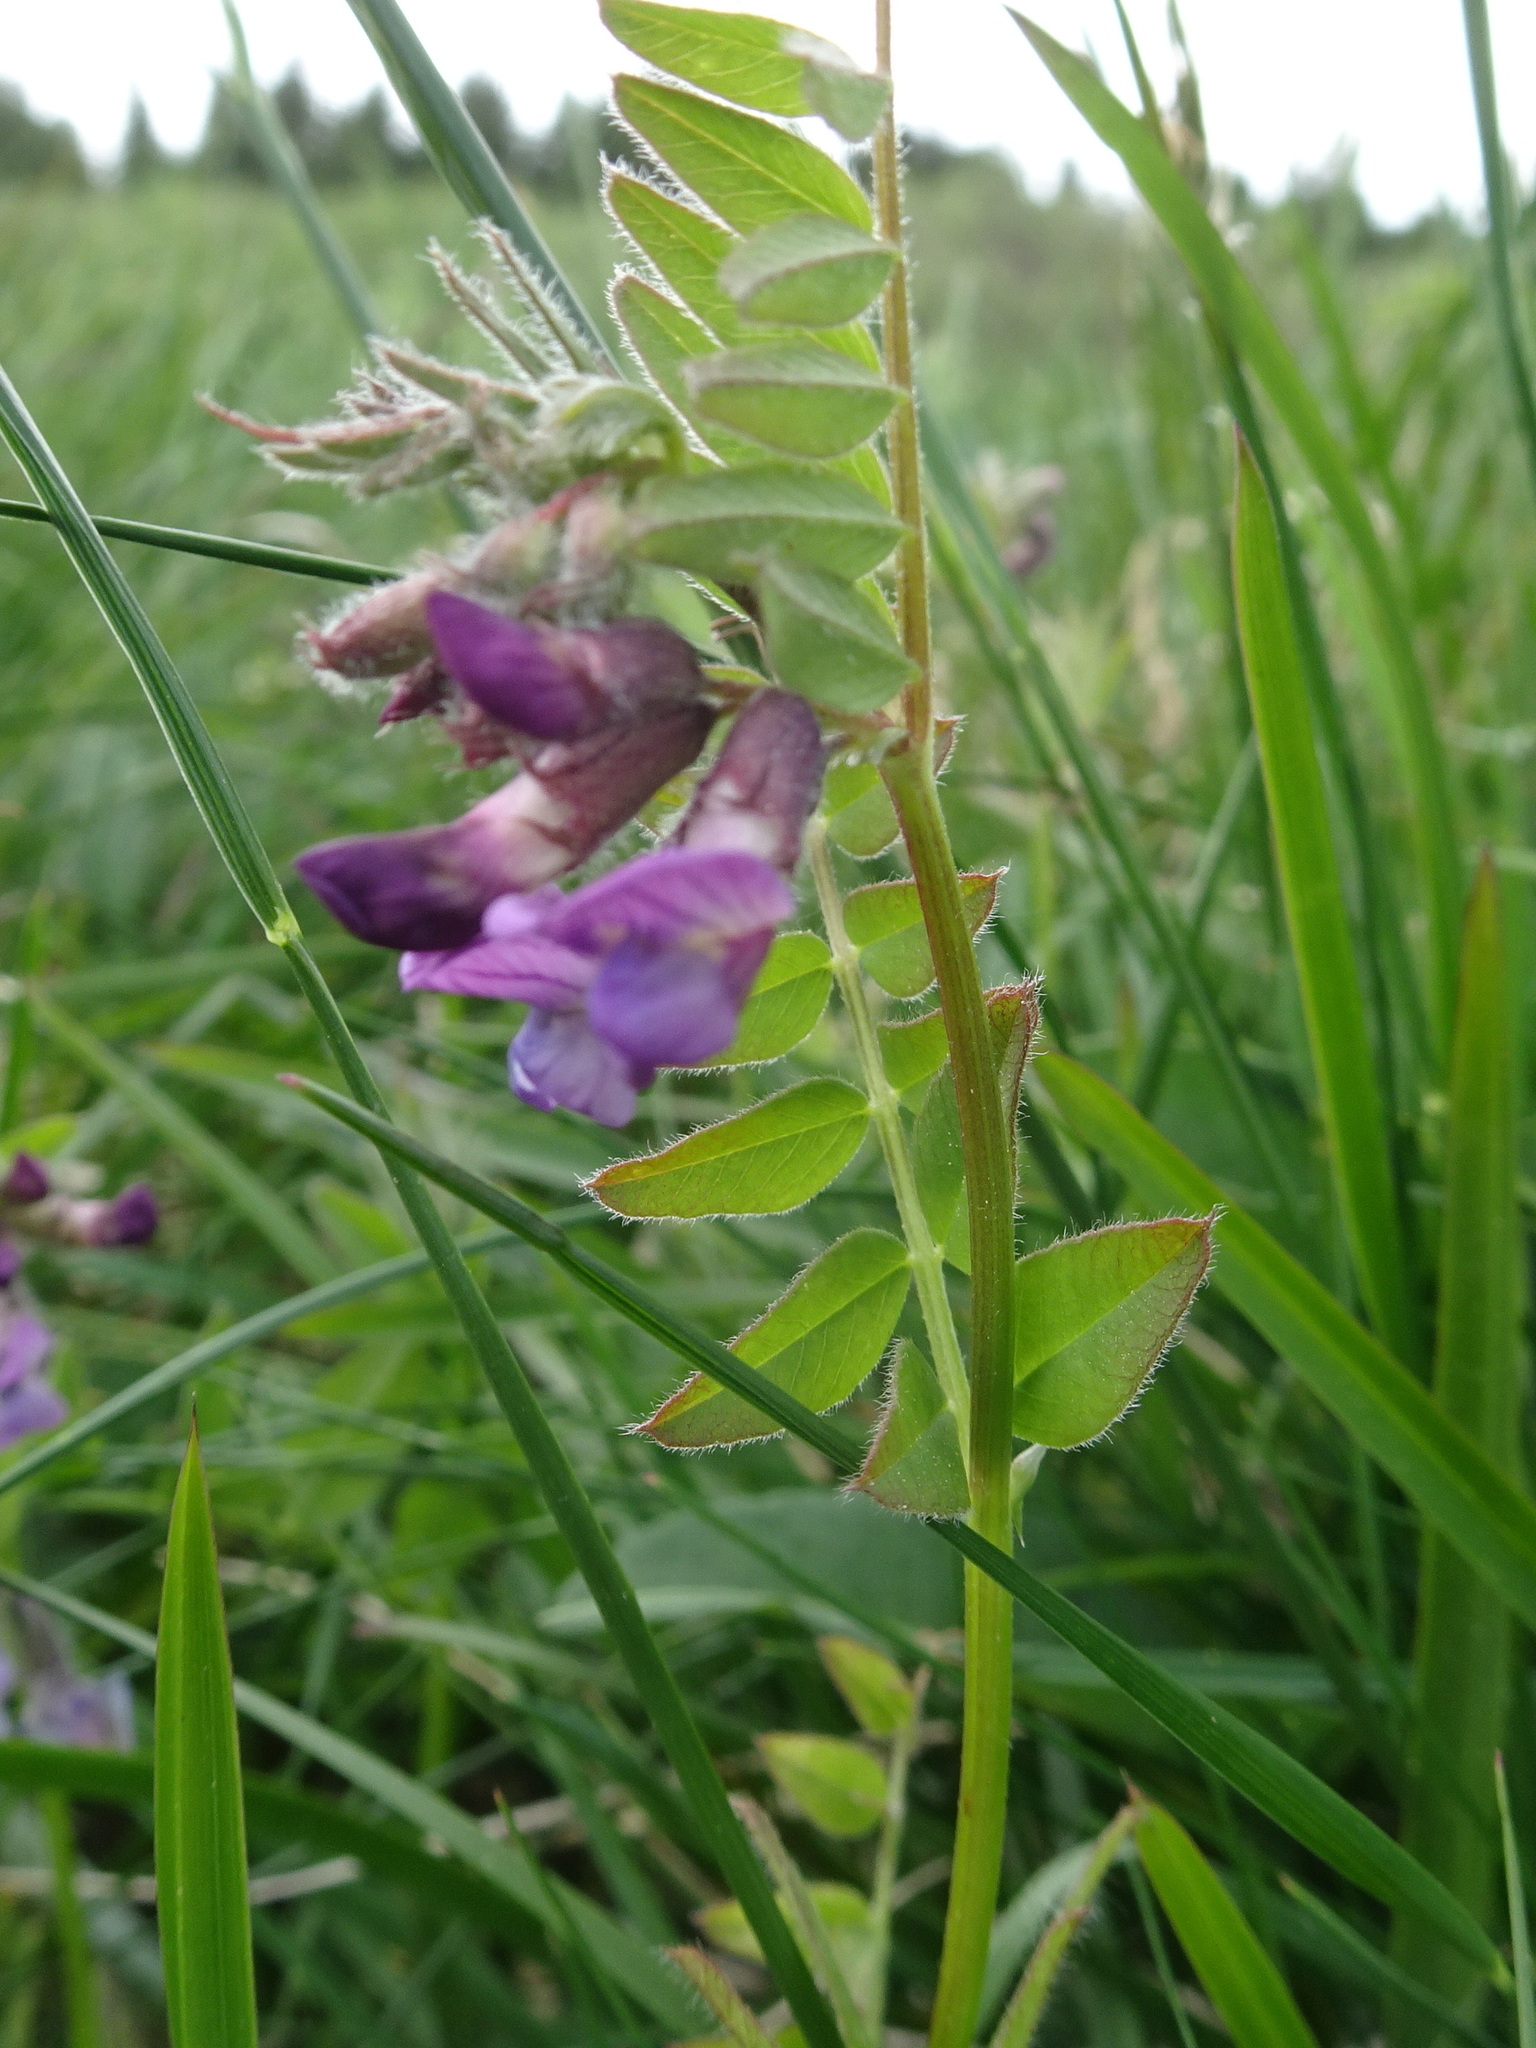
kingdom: Plantae
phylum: Tracheophyta
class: Magnoliopsida
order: Fabales
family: Fabaceae
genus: Vicia
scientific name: Vicia sepium
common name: Bush vetch
